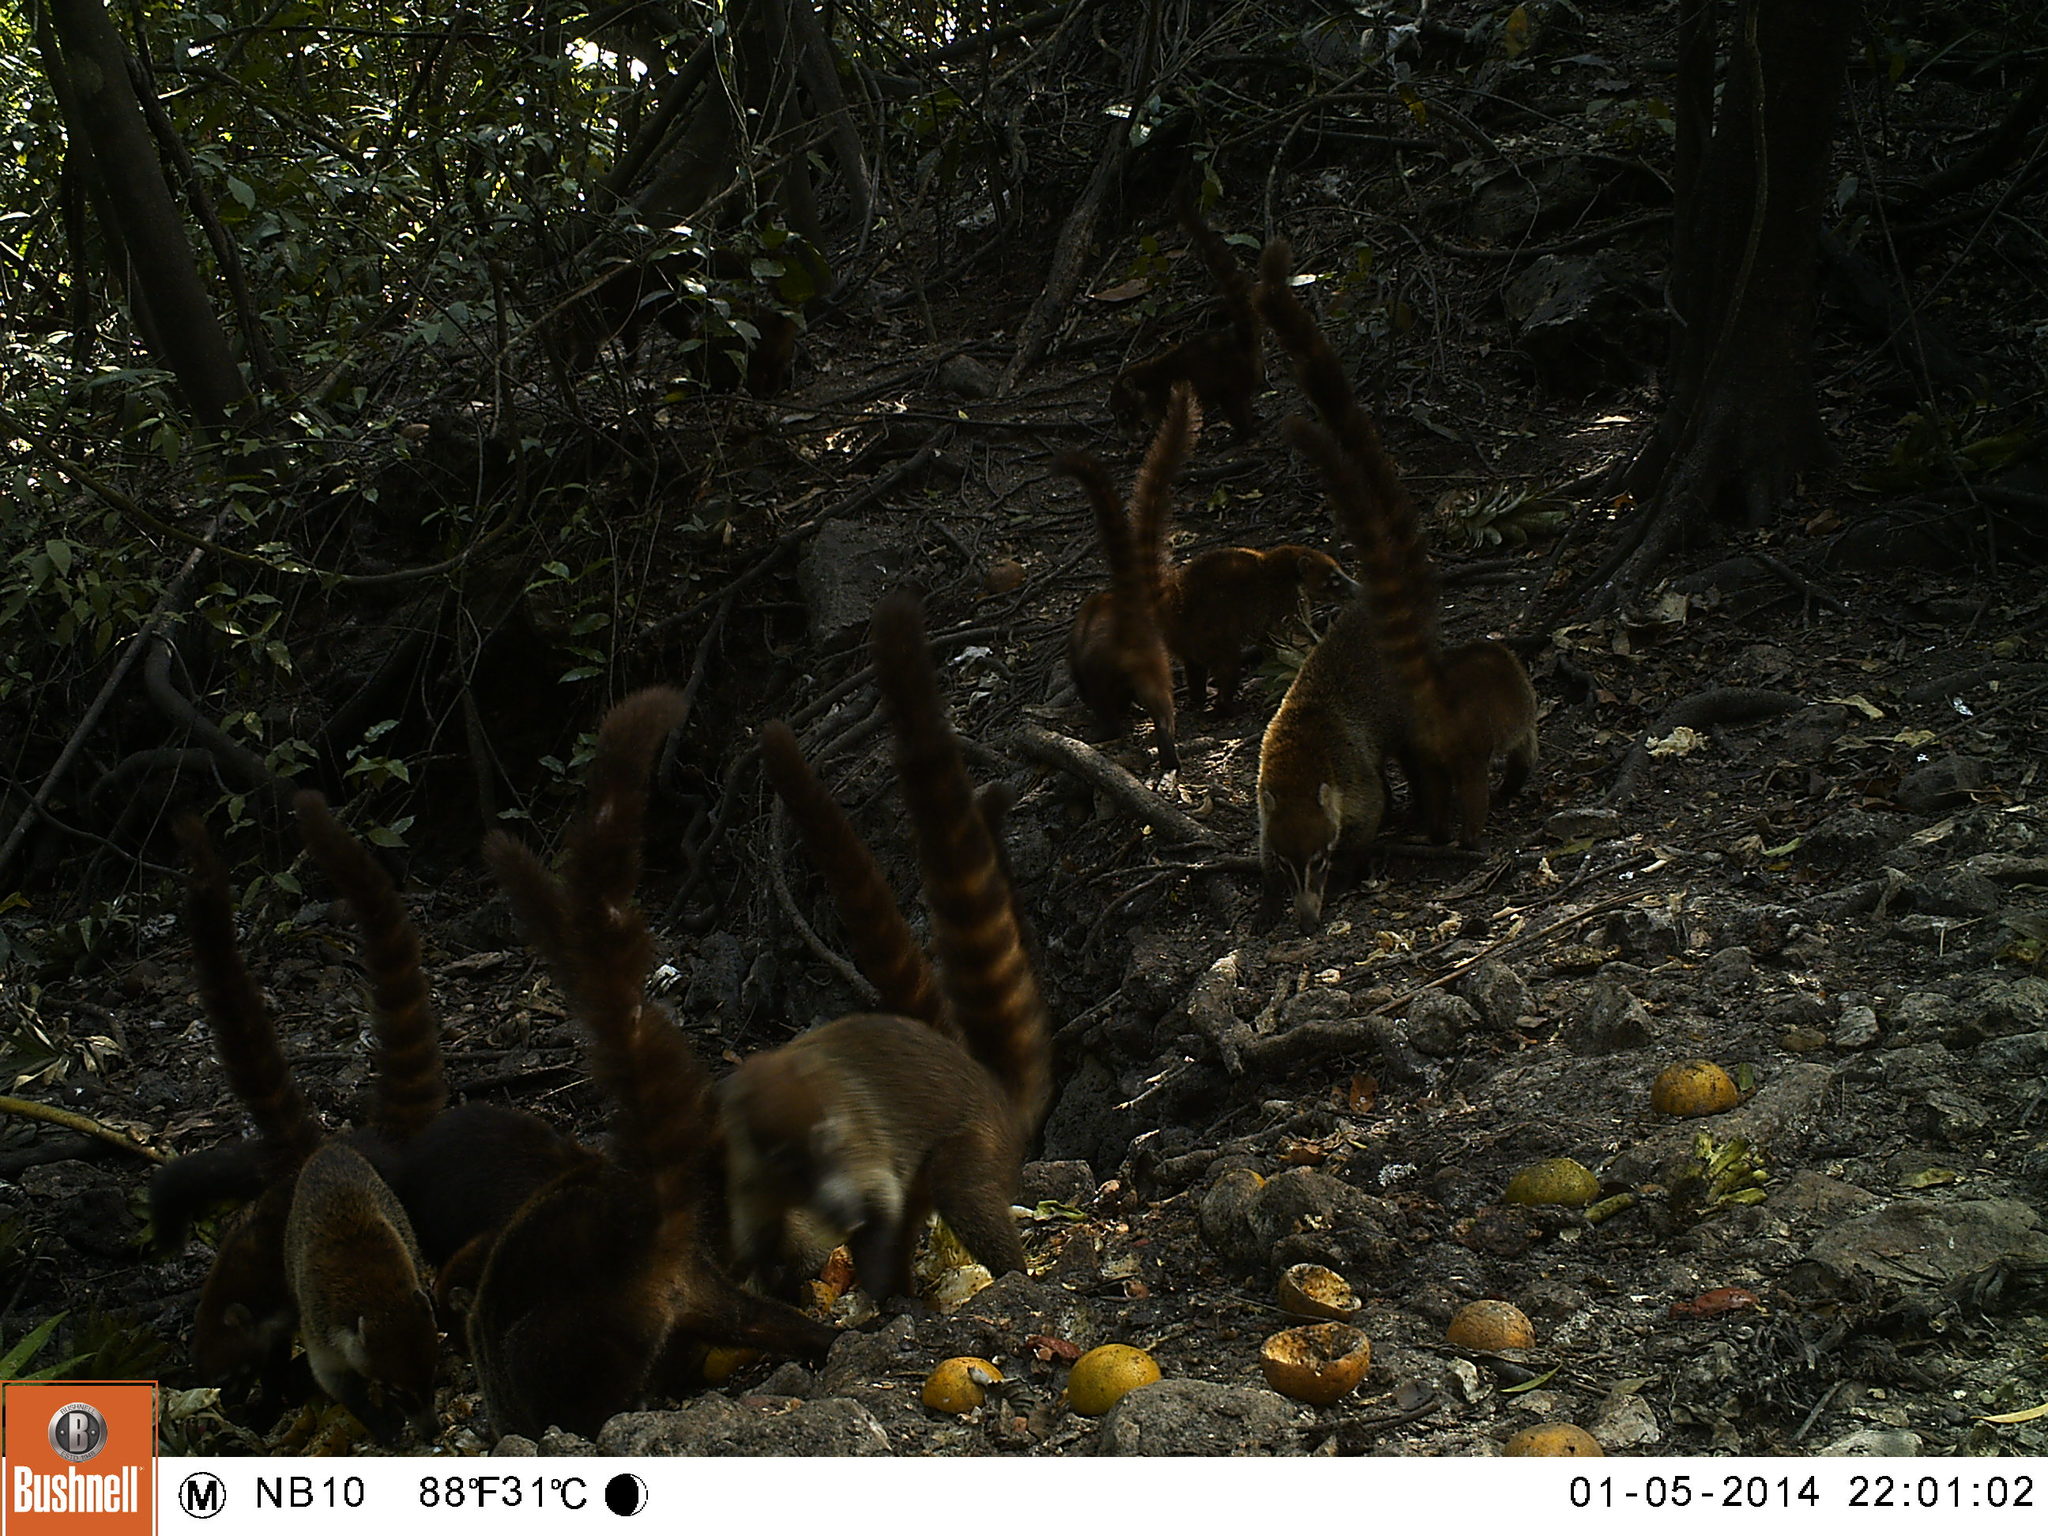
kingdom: Animalia
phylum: Chordata
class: Mammalia
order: Carnivora
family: Procyonidae
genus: Nasua
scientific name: Nasua narica
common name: White-nosed coati
